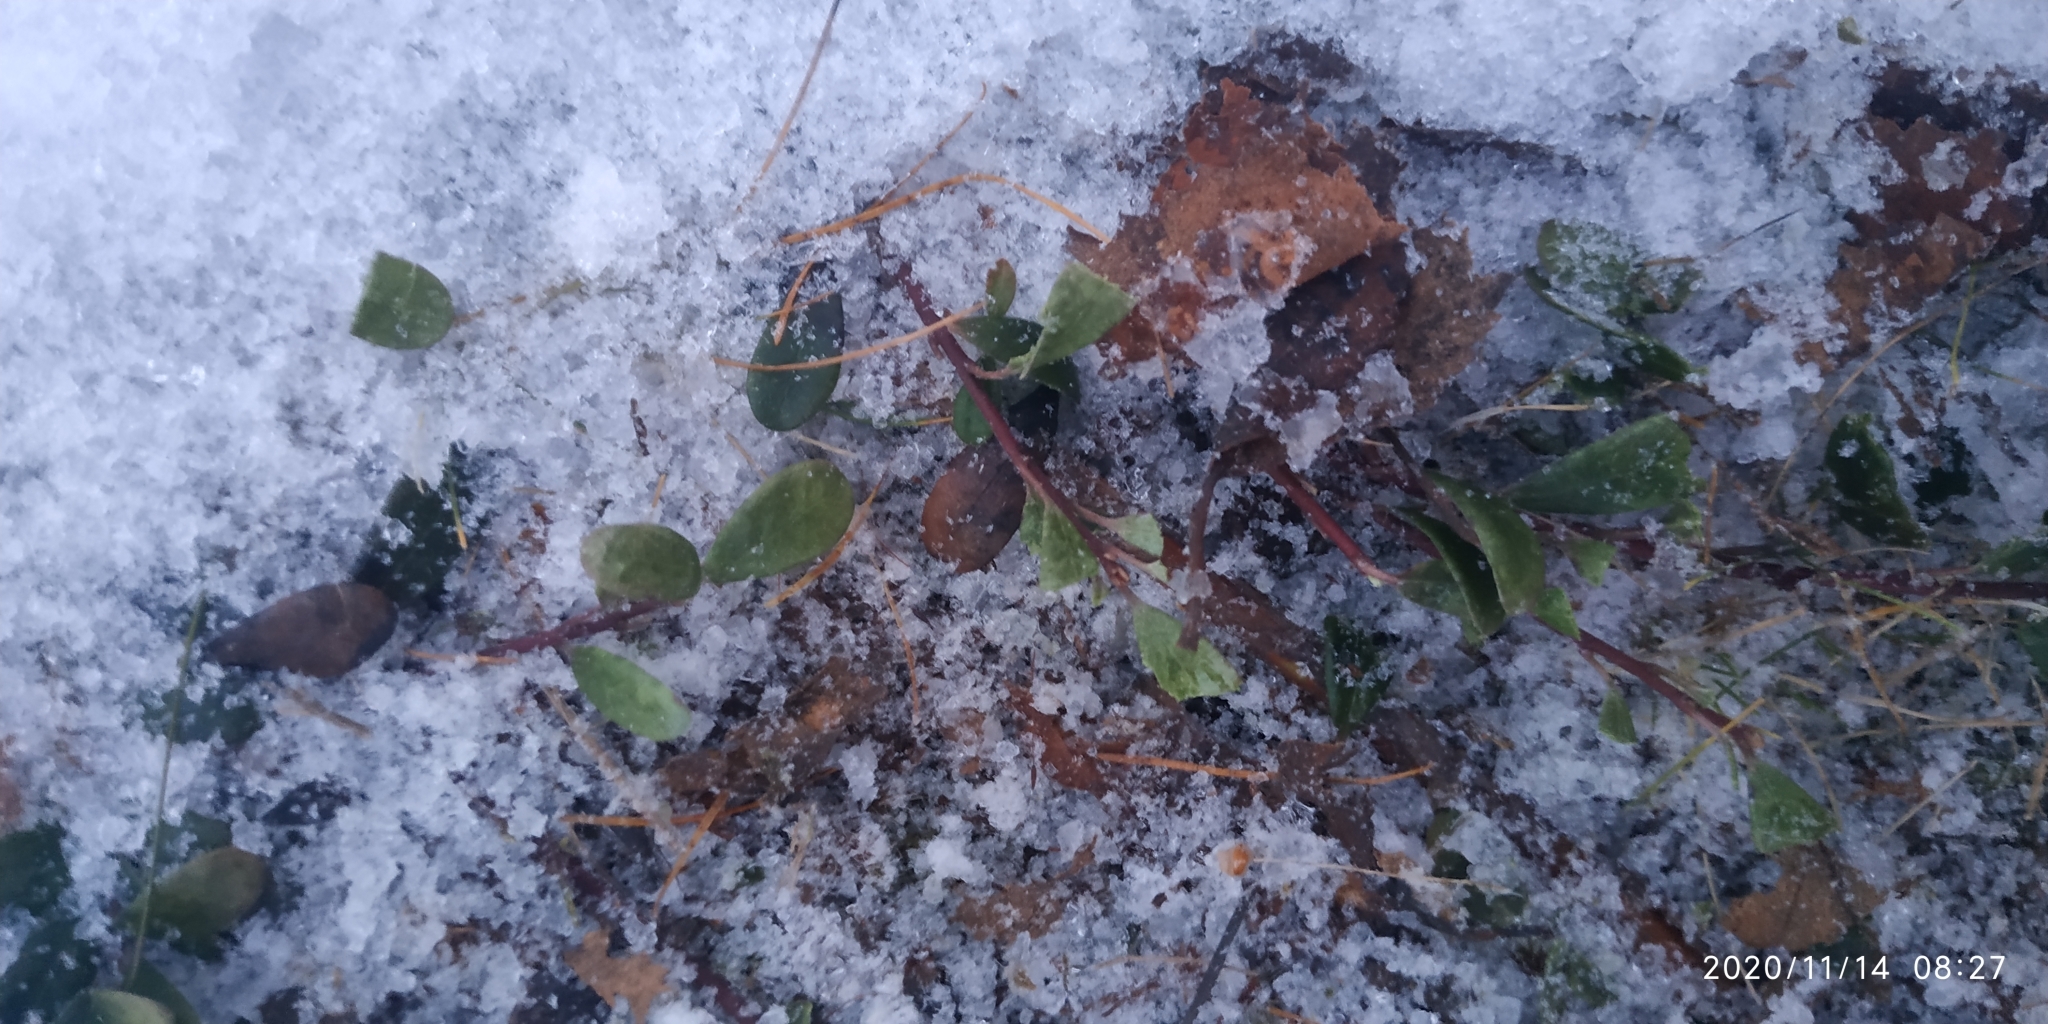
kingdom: Plantae
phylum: Tracheophyta
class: Magnoliopsida
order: Ericales
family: Ericaceae
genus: Arctostaphylos
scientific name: Arctostaphylos uva-ursi
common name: Bearberry
